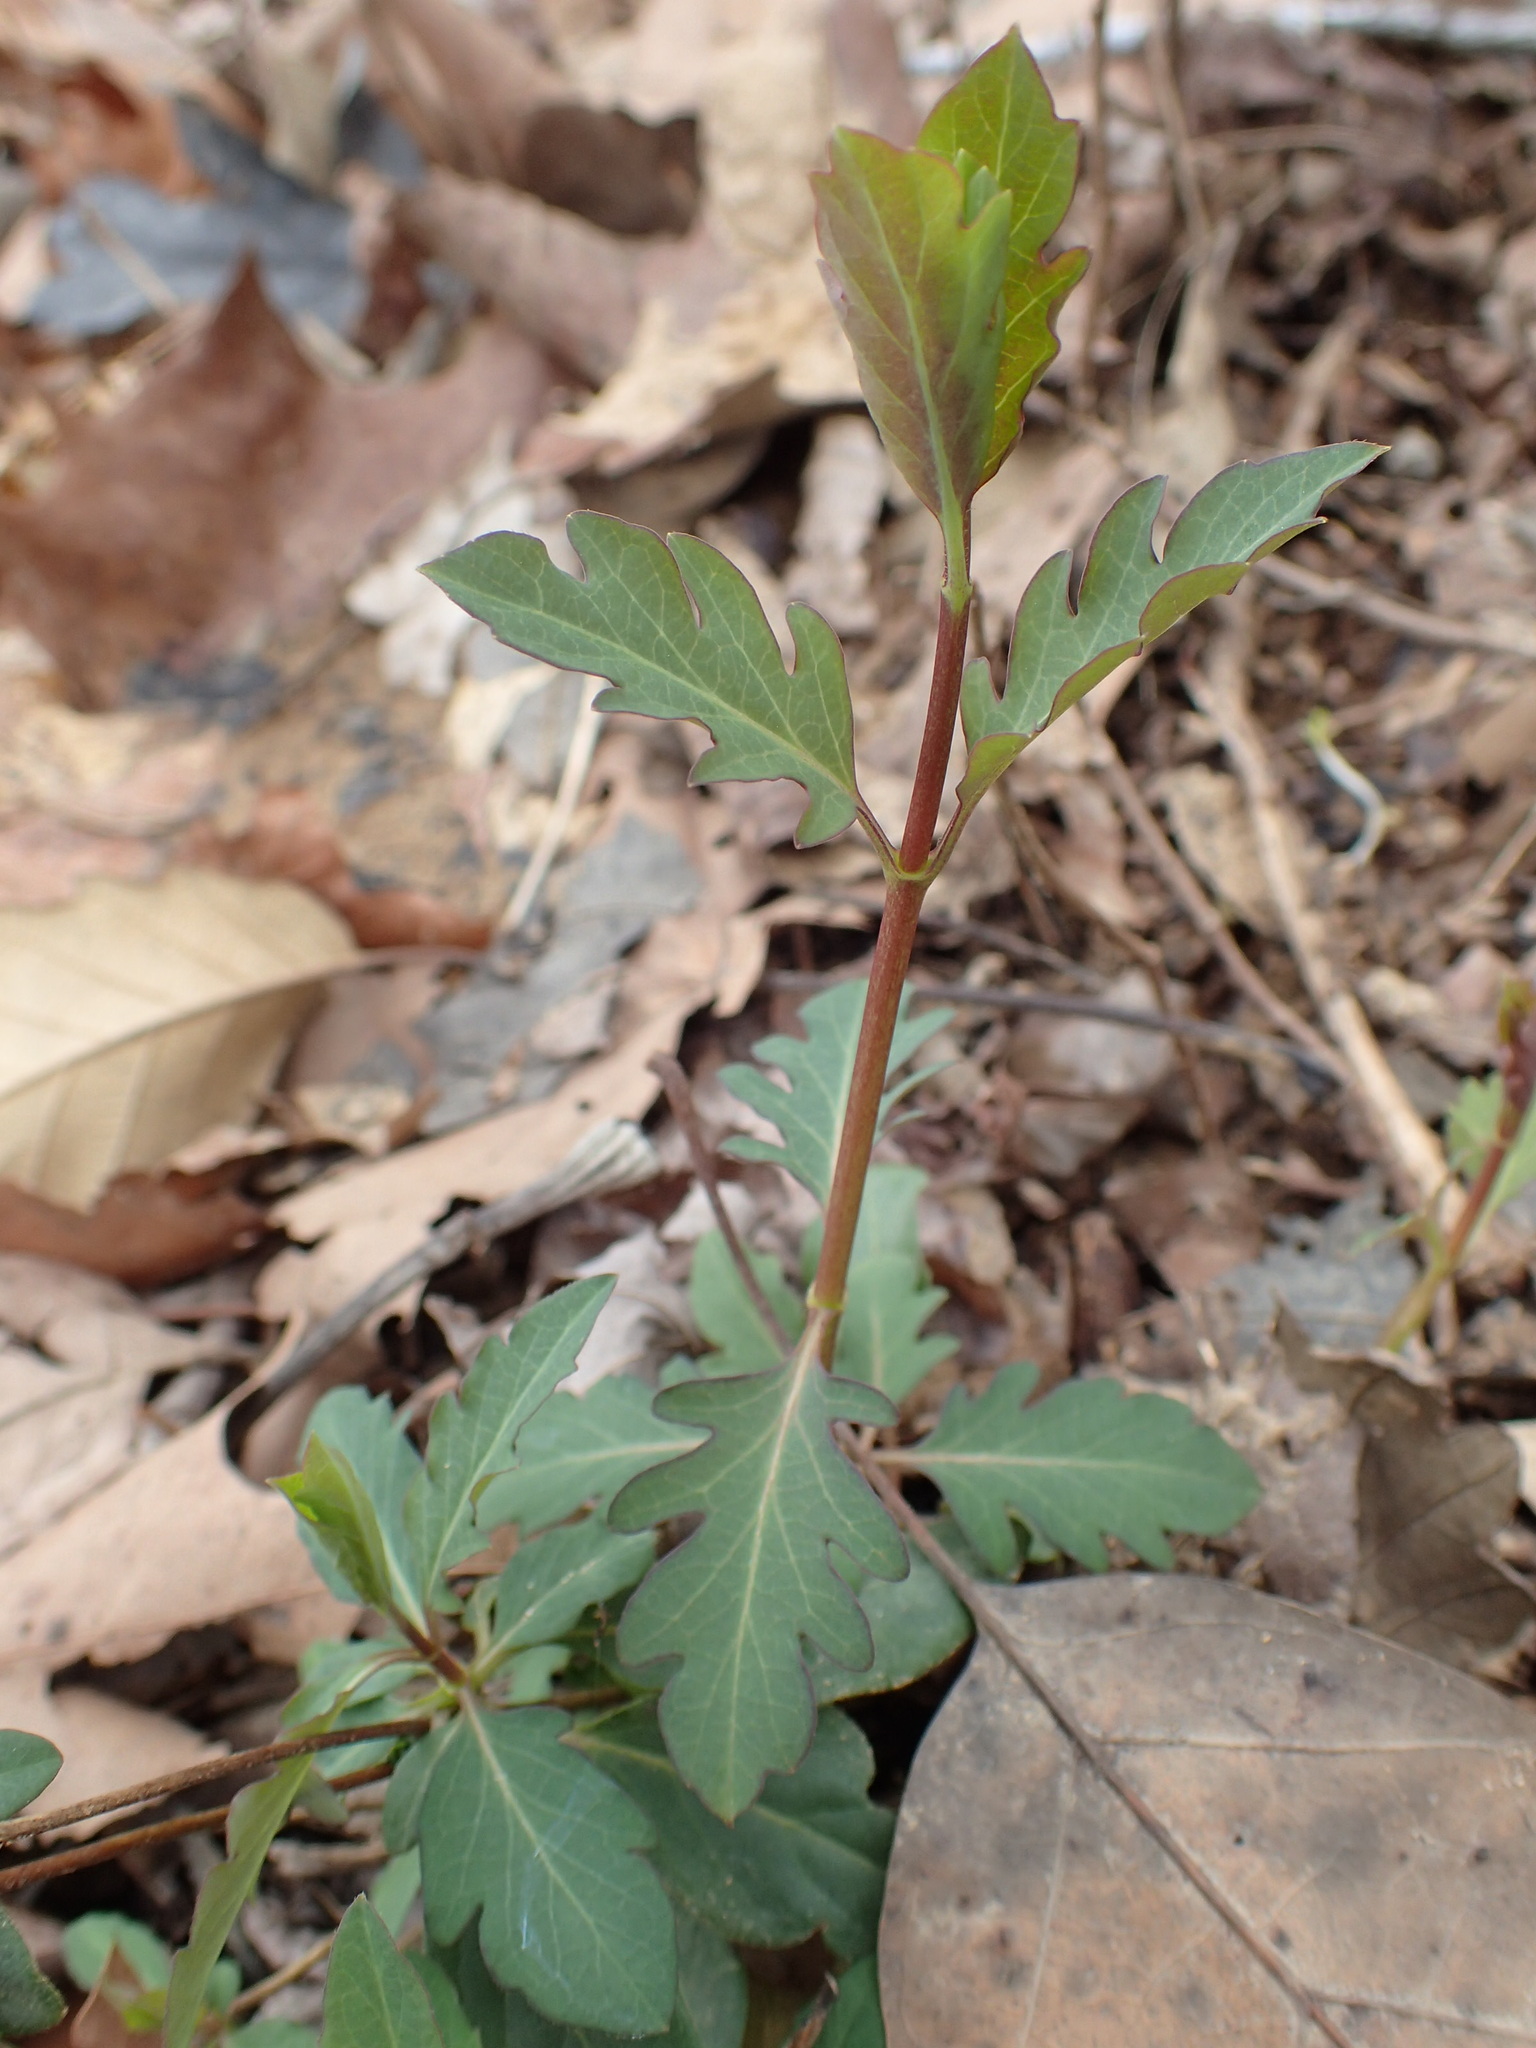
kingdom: Plantae
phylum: Tracheophyta
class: Magnoliopsida
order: Dipsacales
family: Caprifoliaceae
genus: Lonicera
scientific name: Lonicera japonica
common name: Japanese honeysuckle
